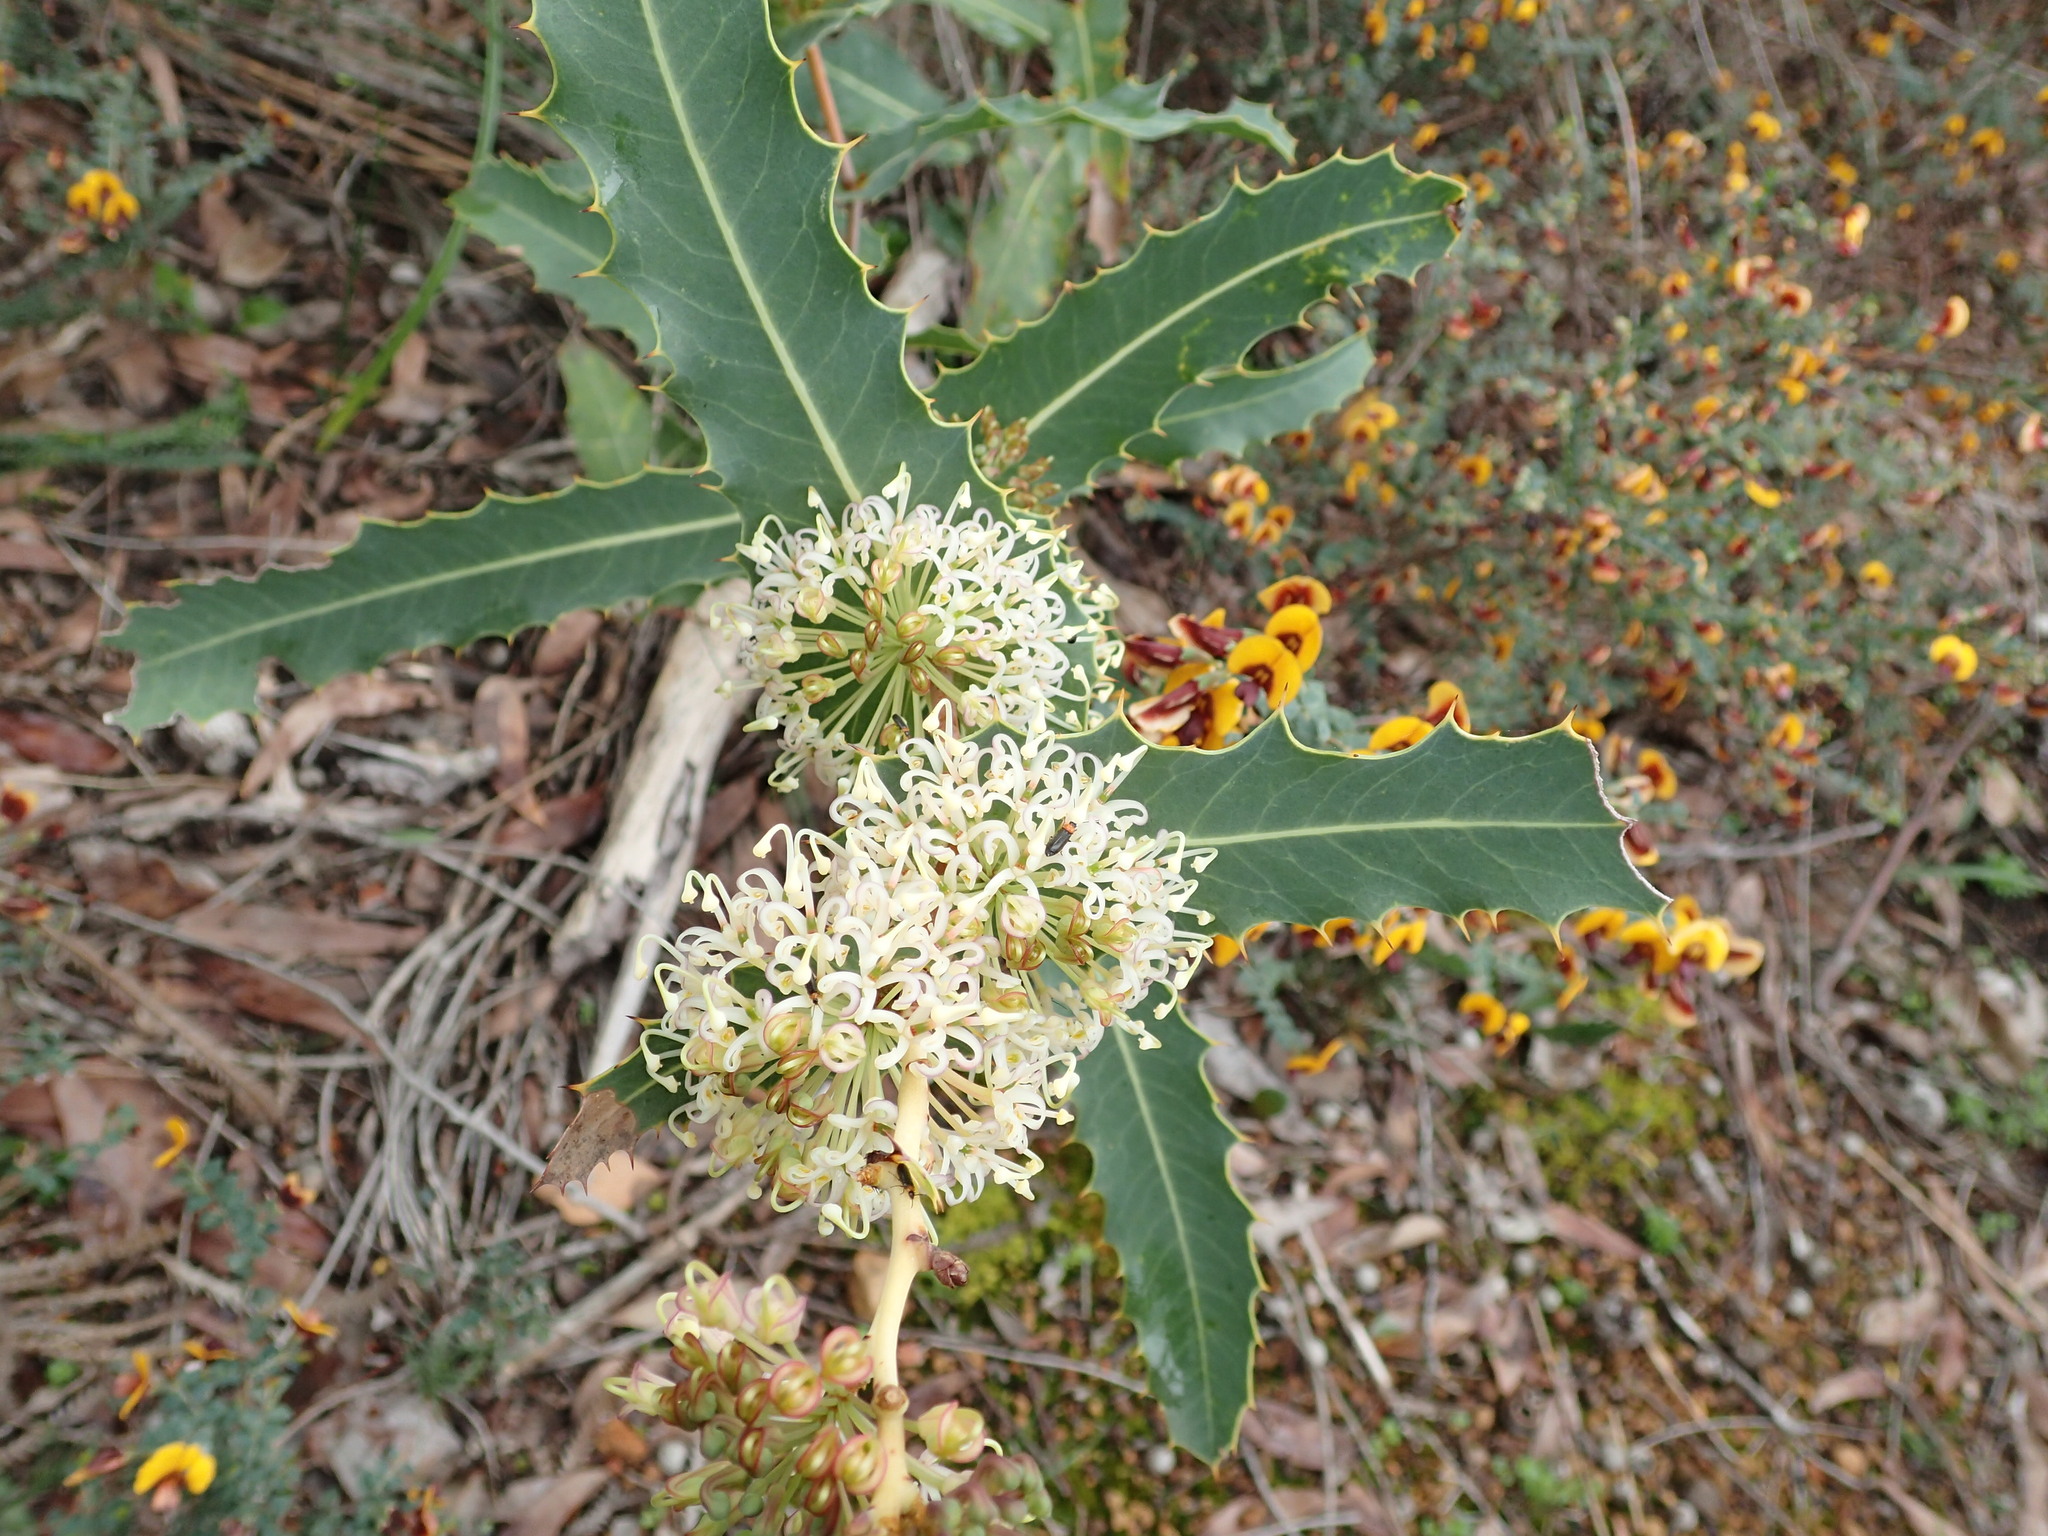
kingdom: Plantae
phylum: Tracheophyta
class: Magnoliopsida
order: Proteales
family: Proteaceae
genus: Hakea
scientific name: Hakea amplexicaulis
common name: Prickly hakea
